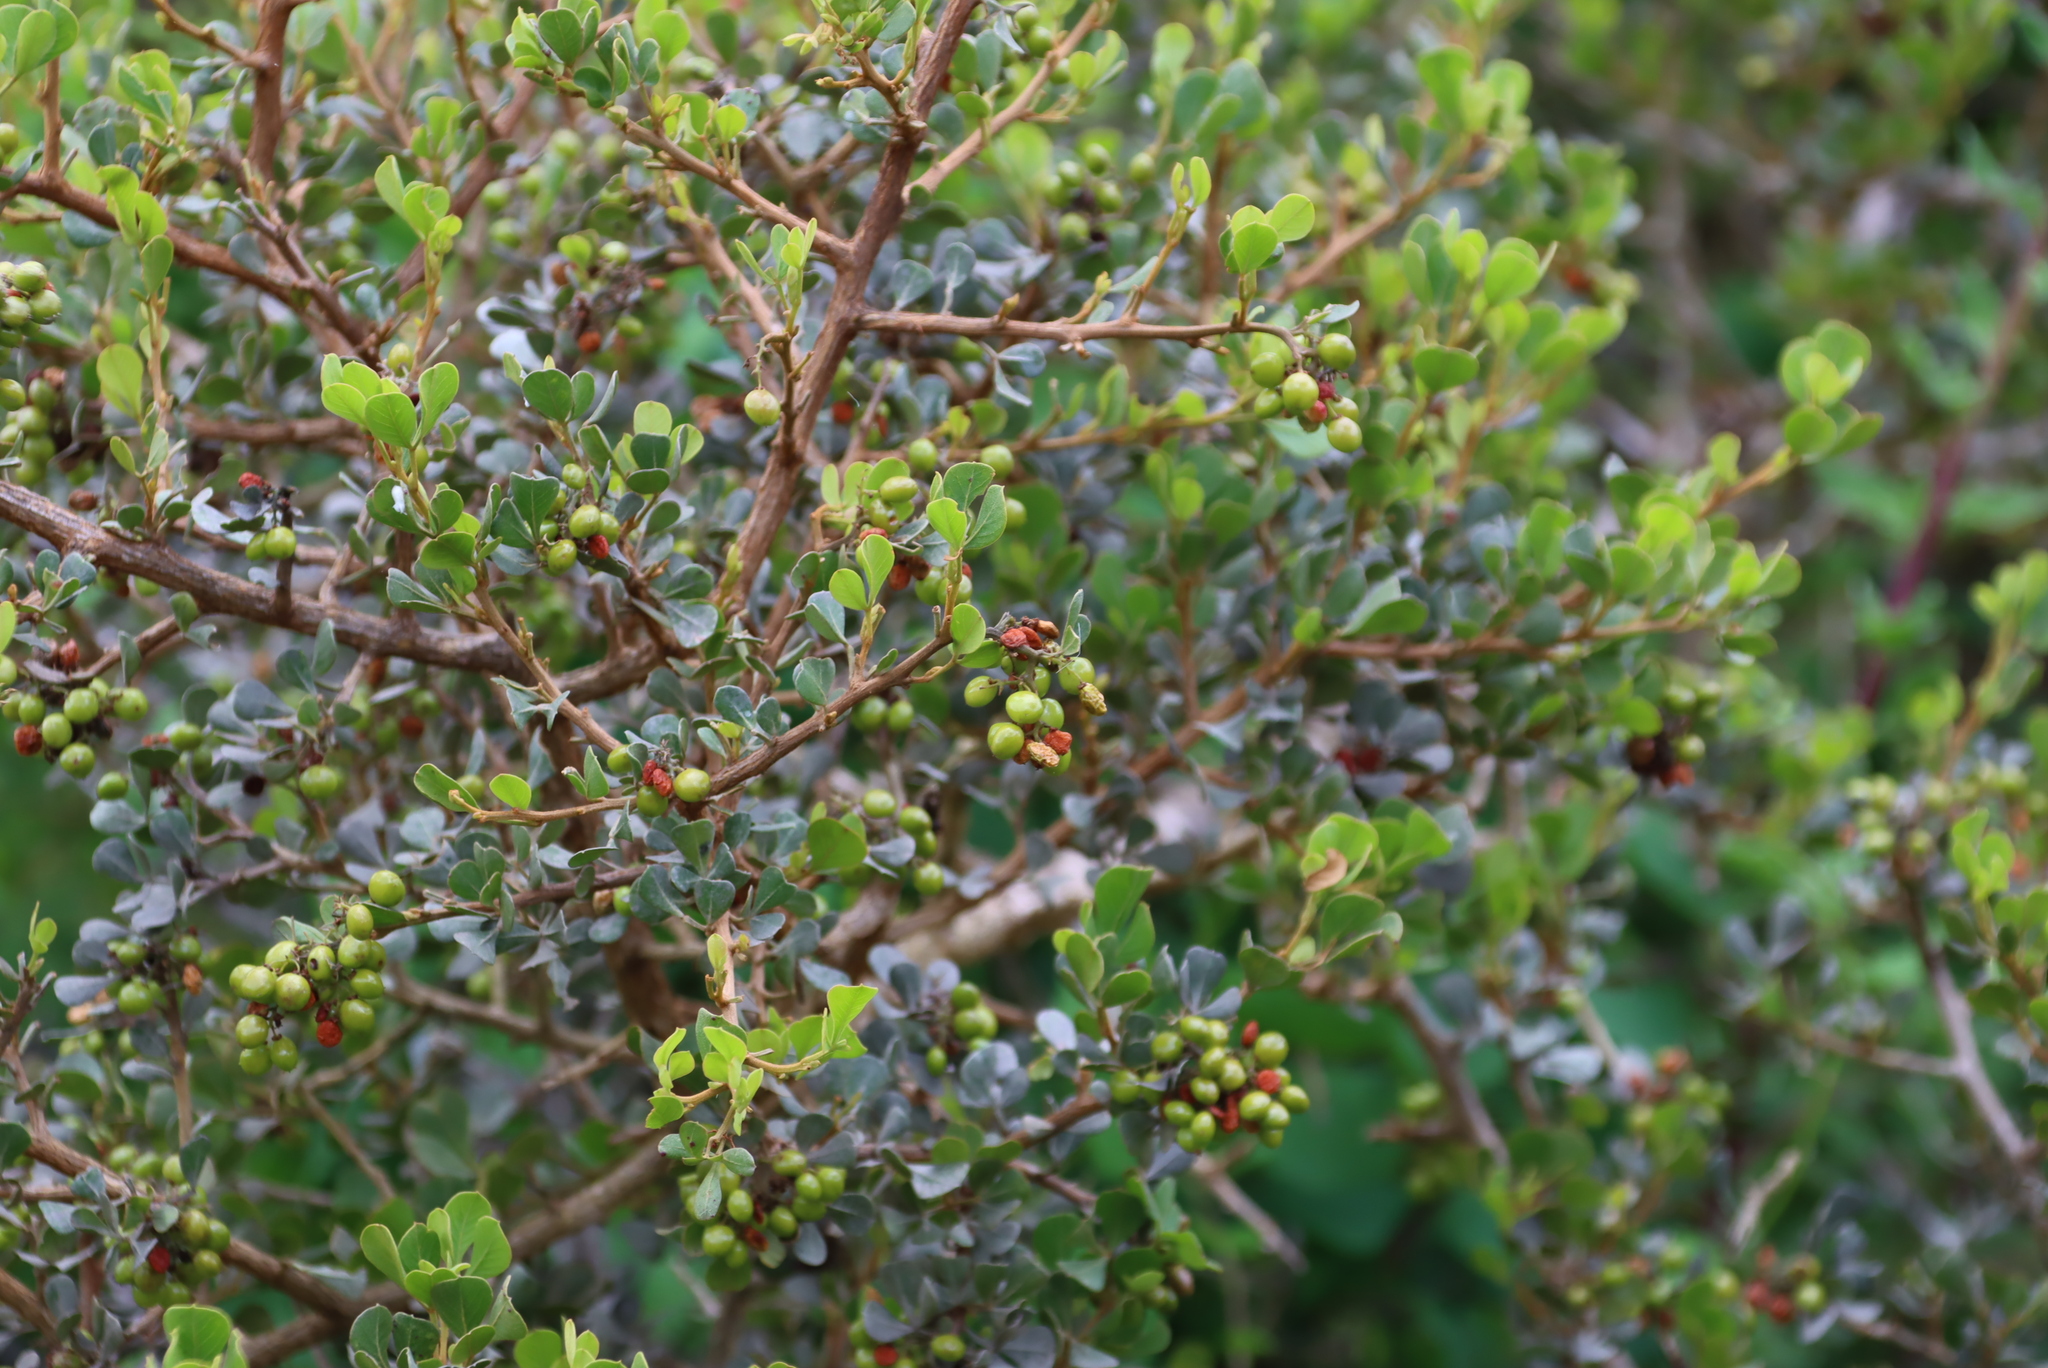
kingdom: Plantae
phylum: Tracheophyta
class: Magnoliopsida
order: Sapindales
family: Anacardiaceae
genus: Searsia
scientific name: Searsia glauca
